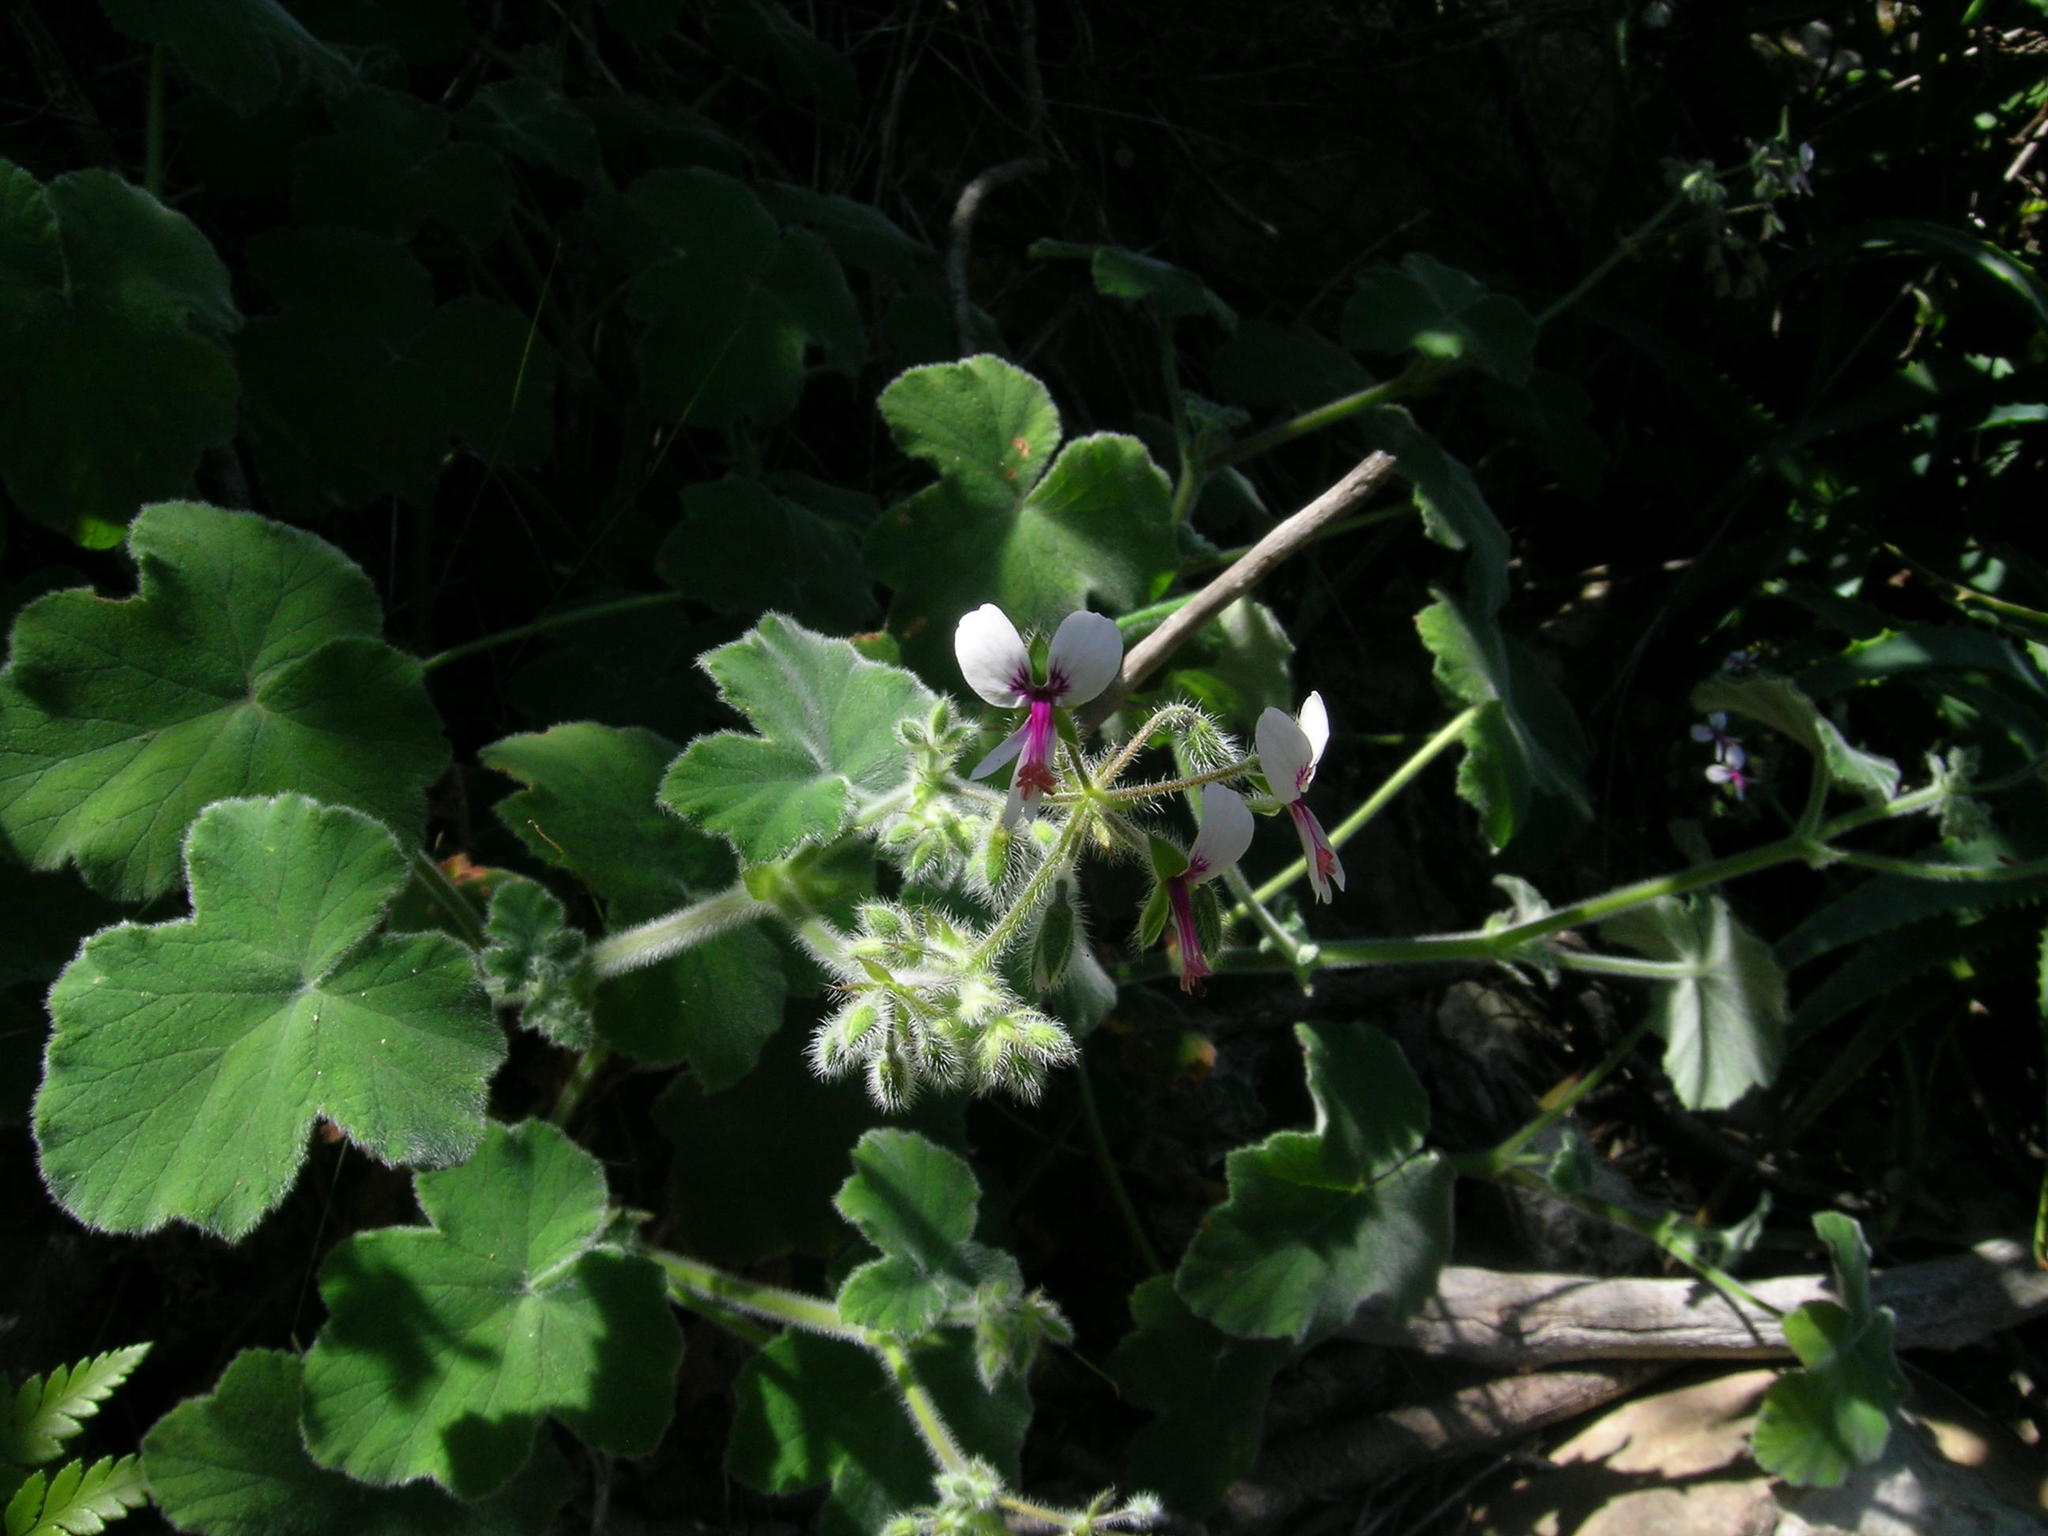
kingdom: Plantae
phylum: Tracheophyta
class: Magnoliopsida
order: Geraniales
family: Geraniaceae
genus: Pelargonium
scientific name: Pelargonium tomentosum
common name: Peppermint-scented geranium
